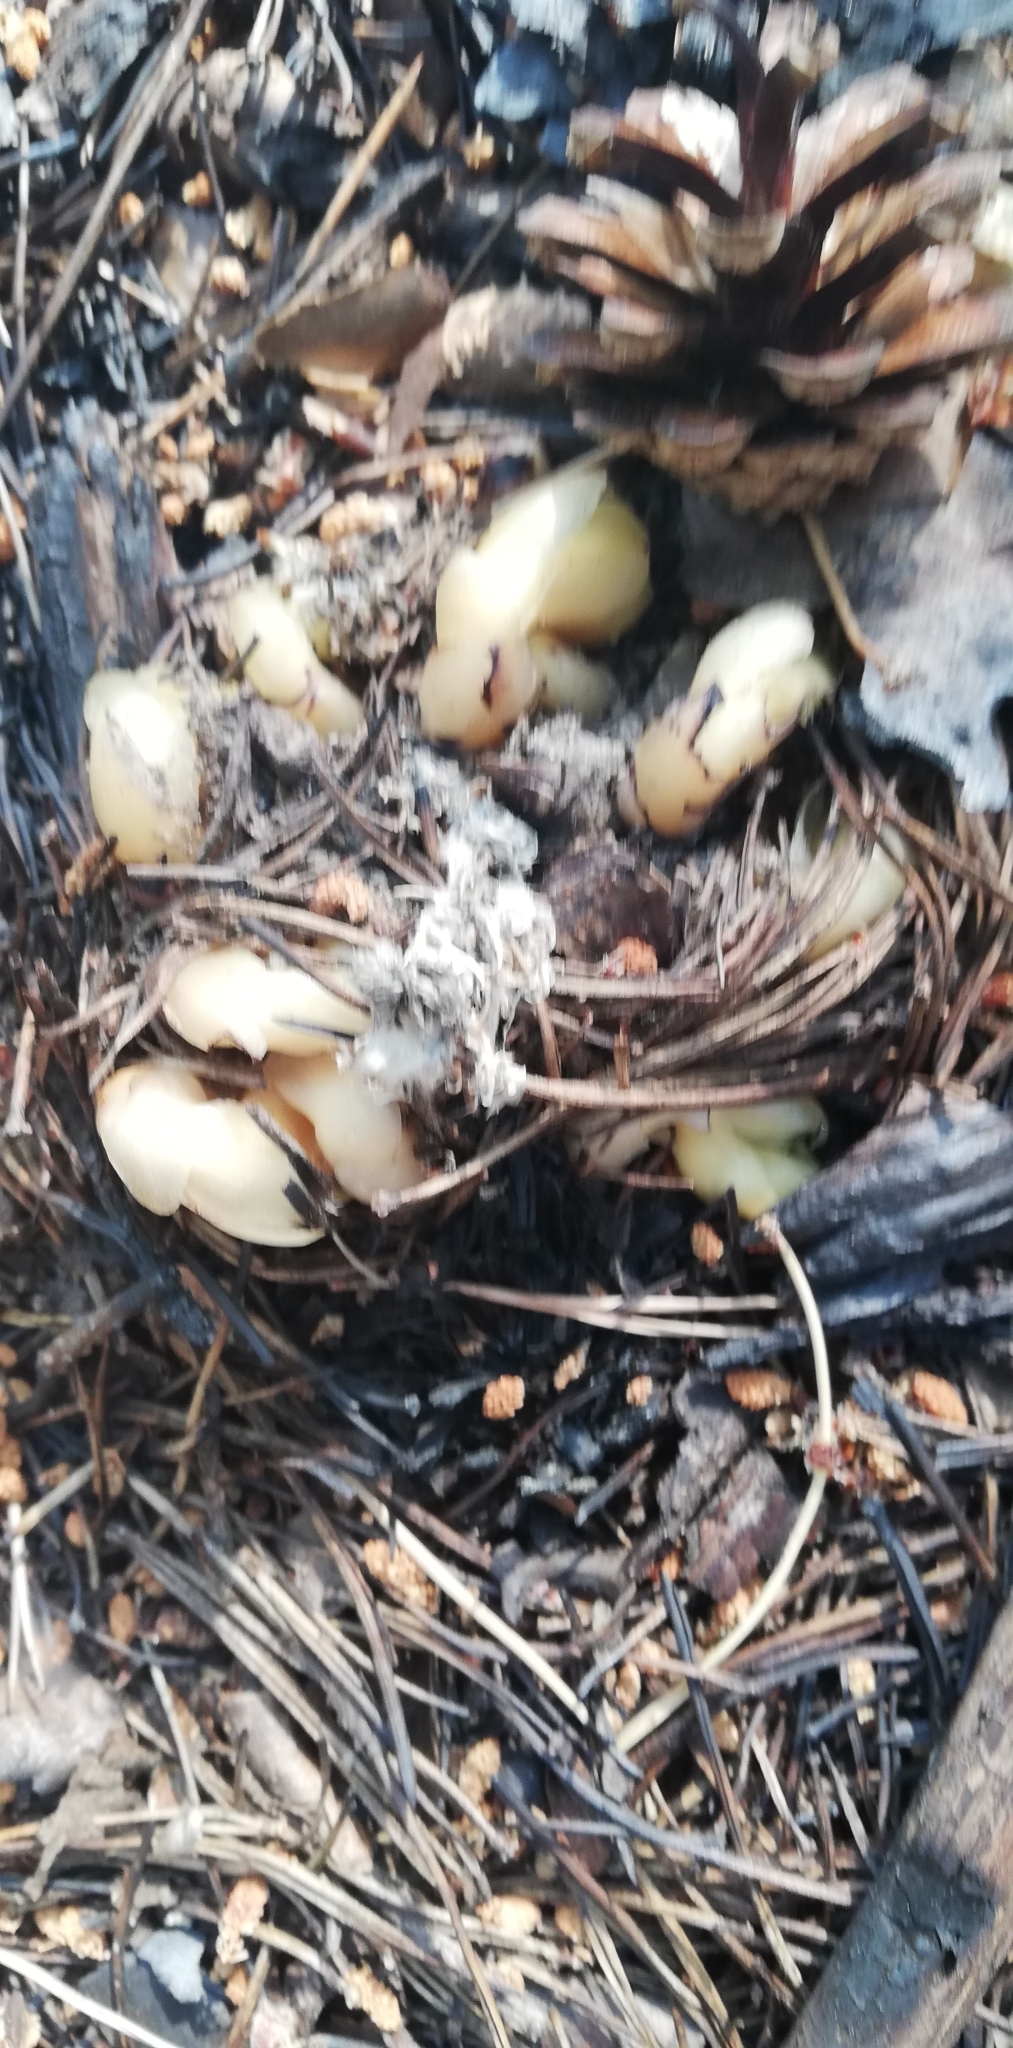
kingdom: Plantae
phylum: Tracheophyta
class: Magnoliopsida
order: Ericales
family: Ericaceae
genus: Hypopitys
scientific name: Hypopitys monotropa
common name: Yellow bird's-nest
